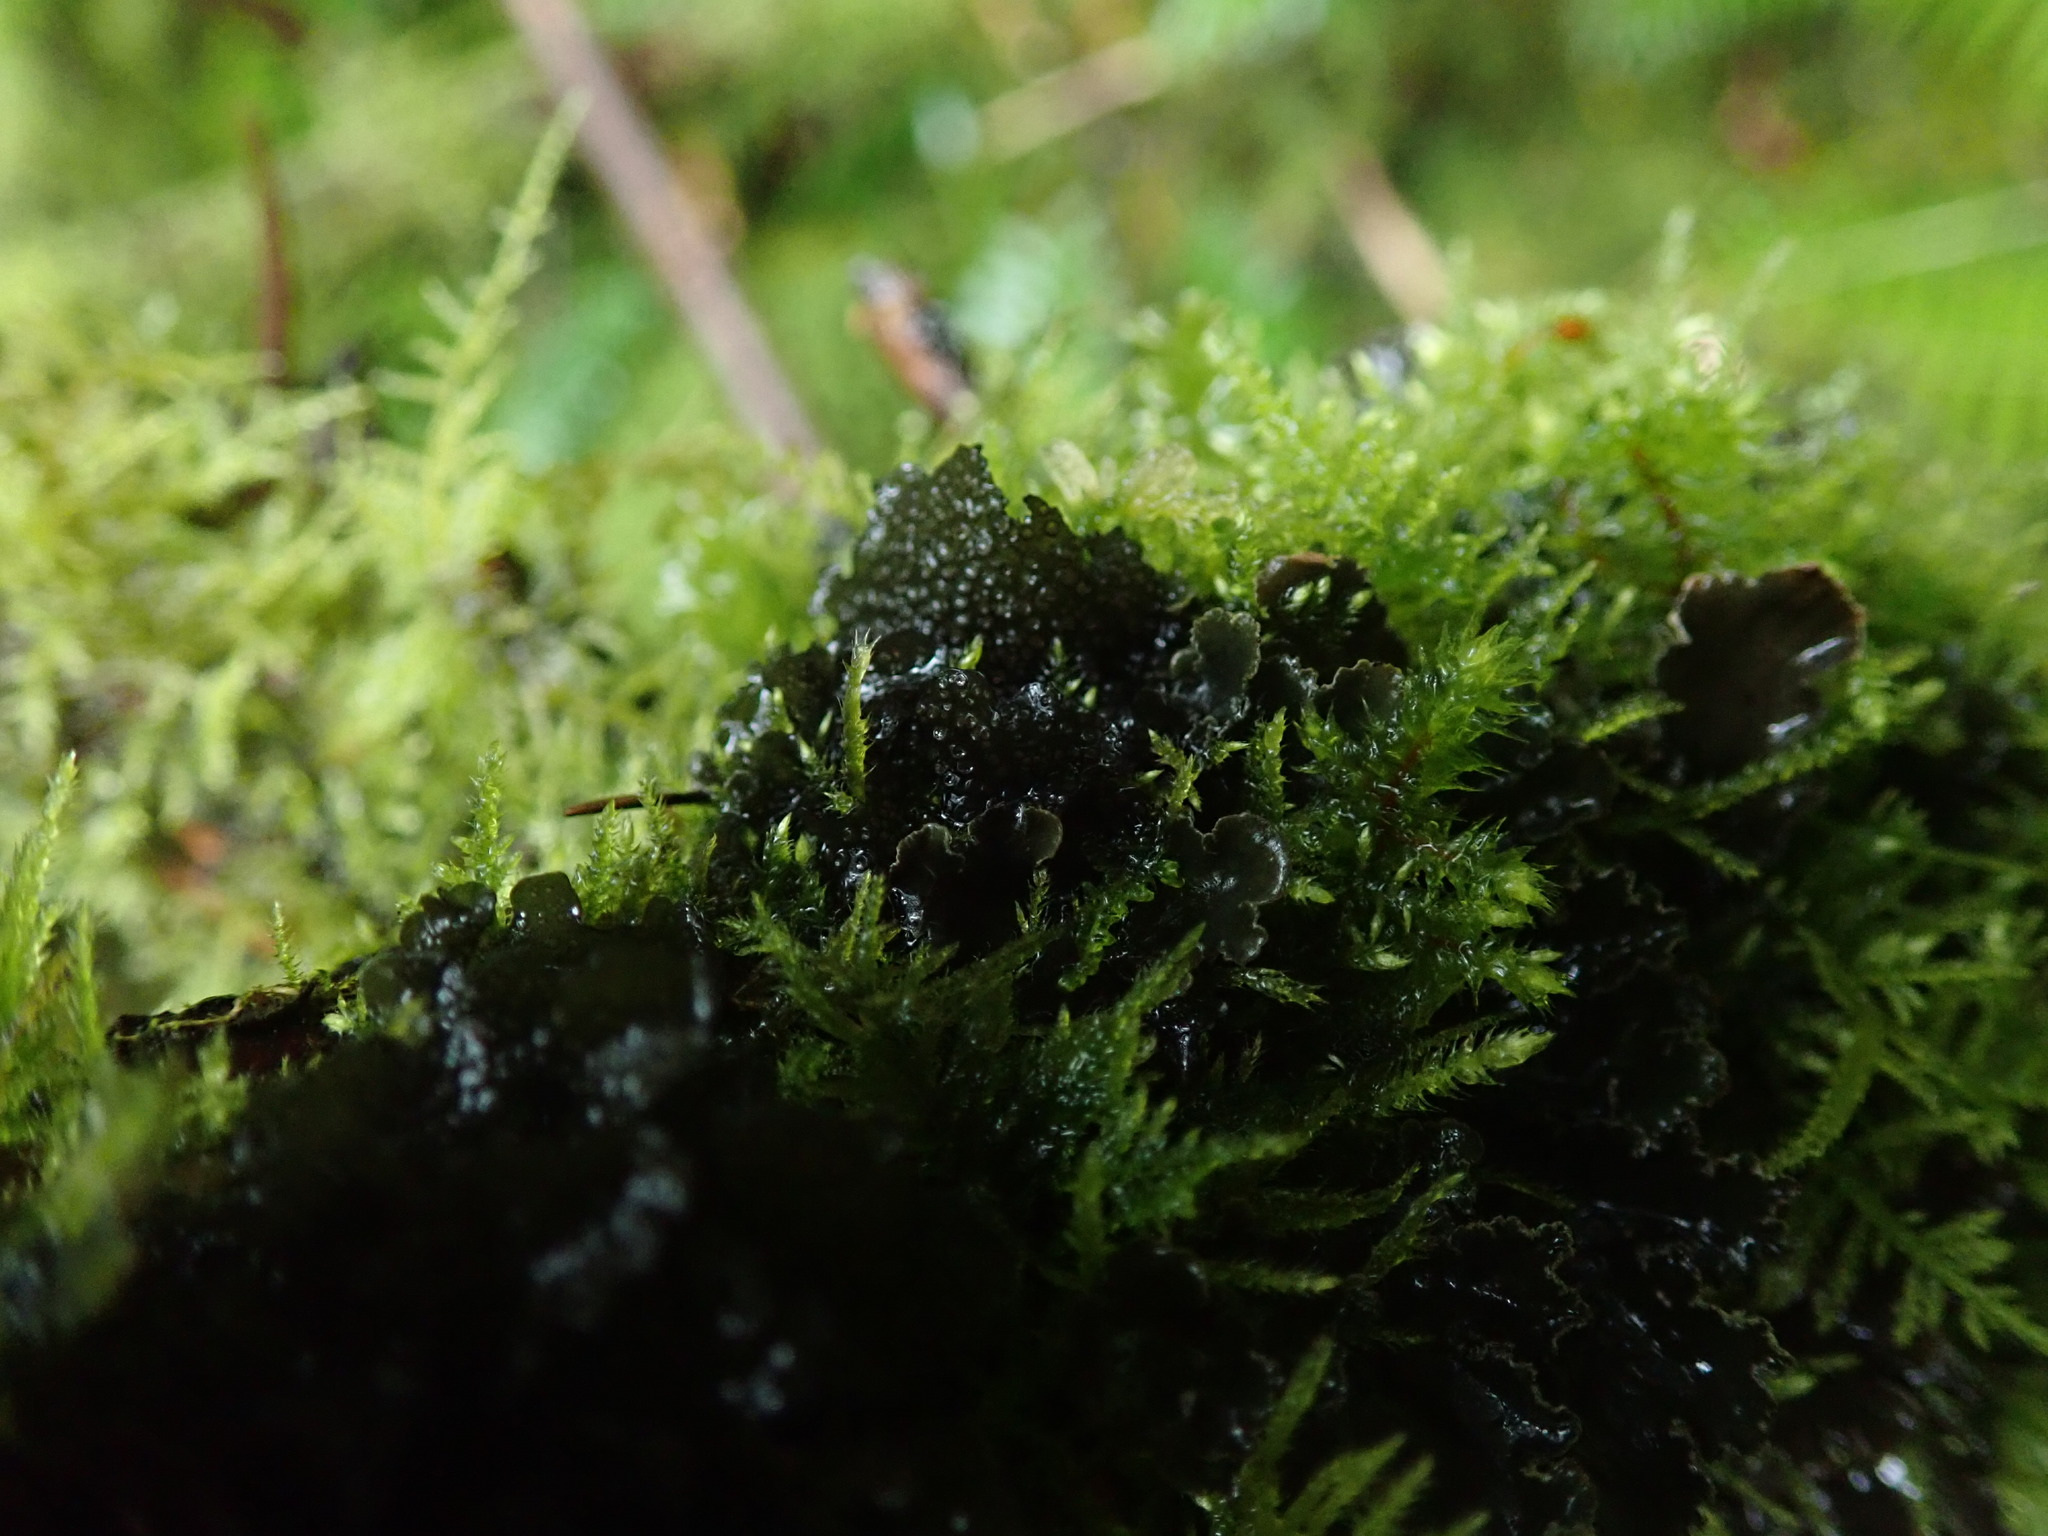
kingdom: Fungi
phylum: Ascomycota
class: Lecanoromycetes
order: Peltigerales
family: Collemataceae
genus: Scytinium
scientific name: Scytinium polycarpum
